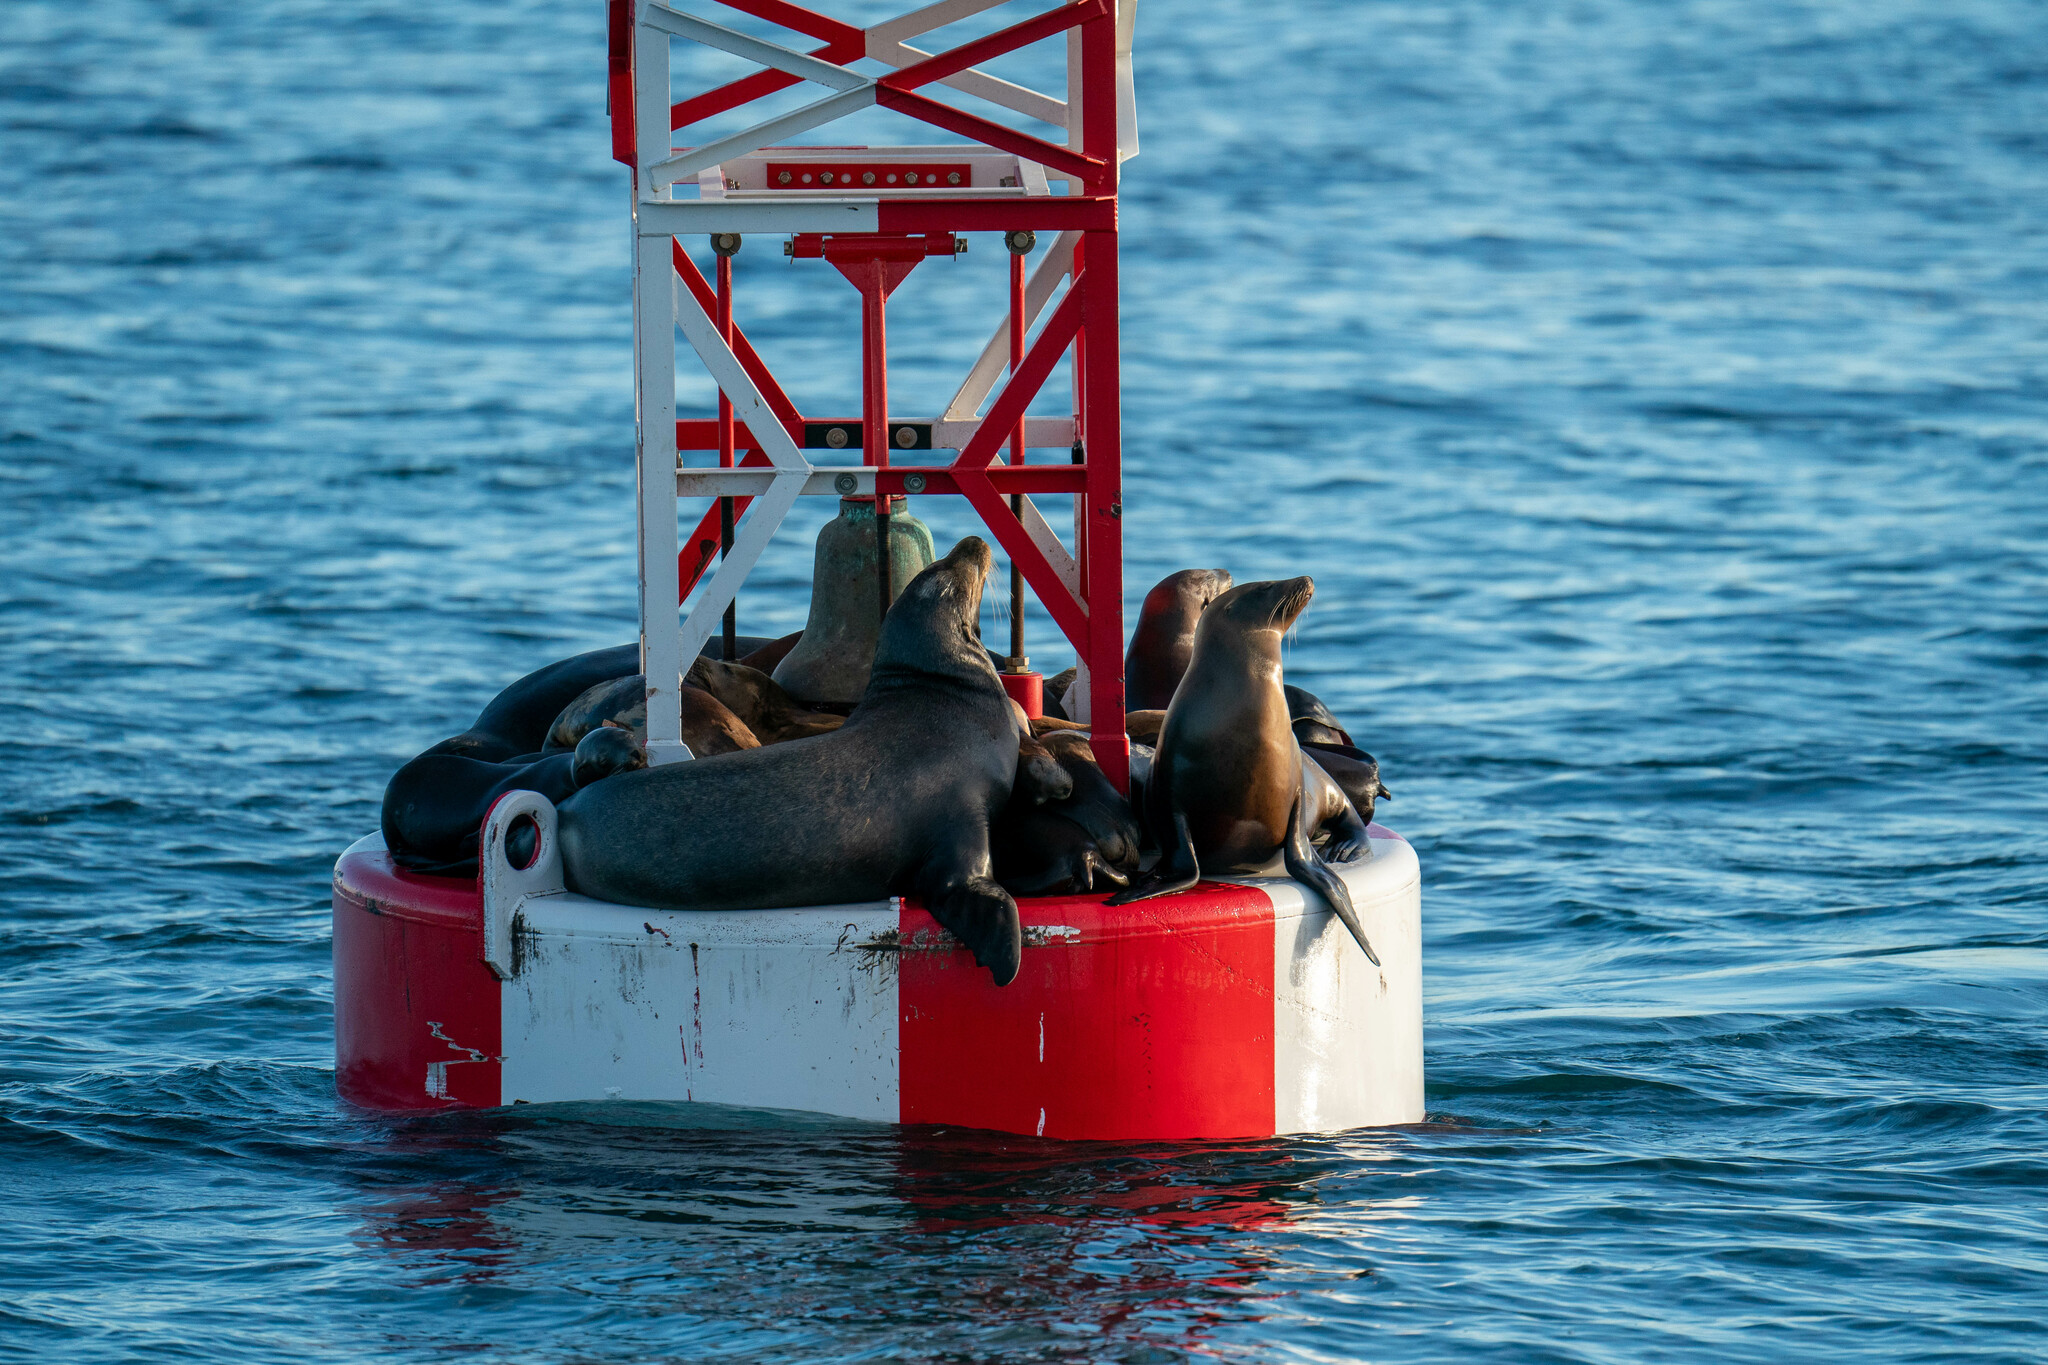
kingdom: Animalia
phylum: Chordata
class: Mammalia
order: Carnivora
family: Otariidae
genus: Zalophus
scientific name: Zalophus californianus
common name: California sea lion
